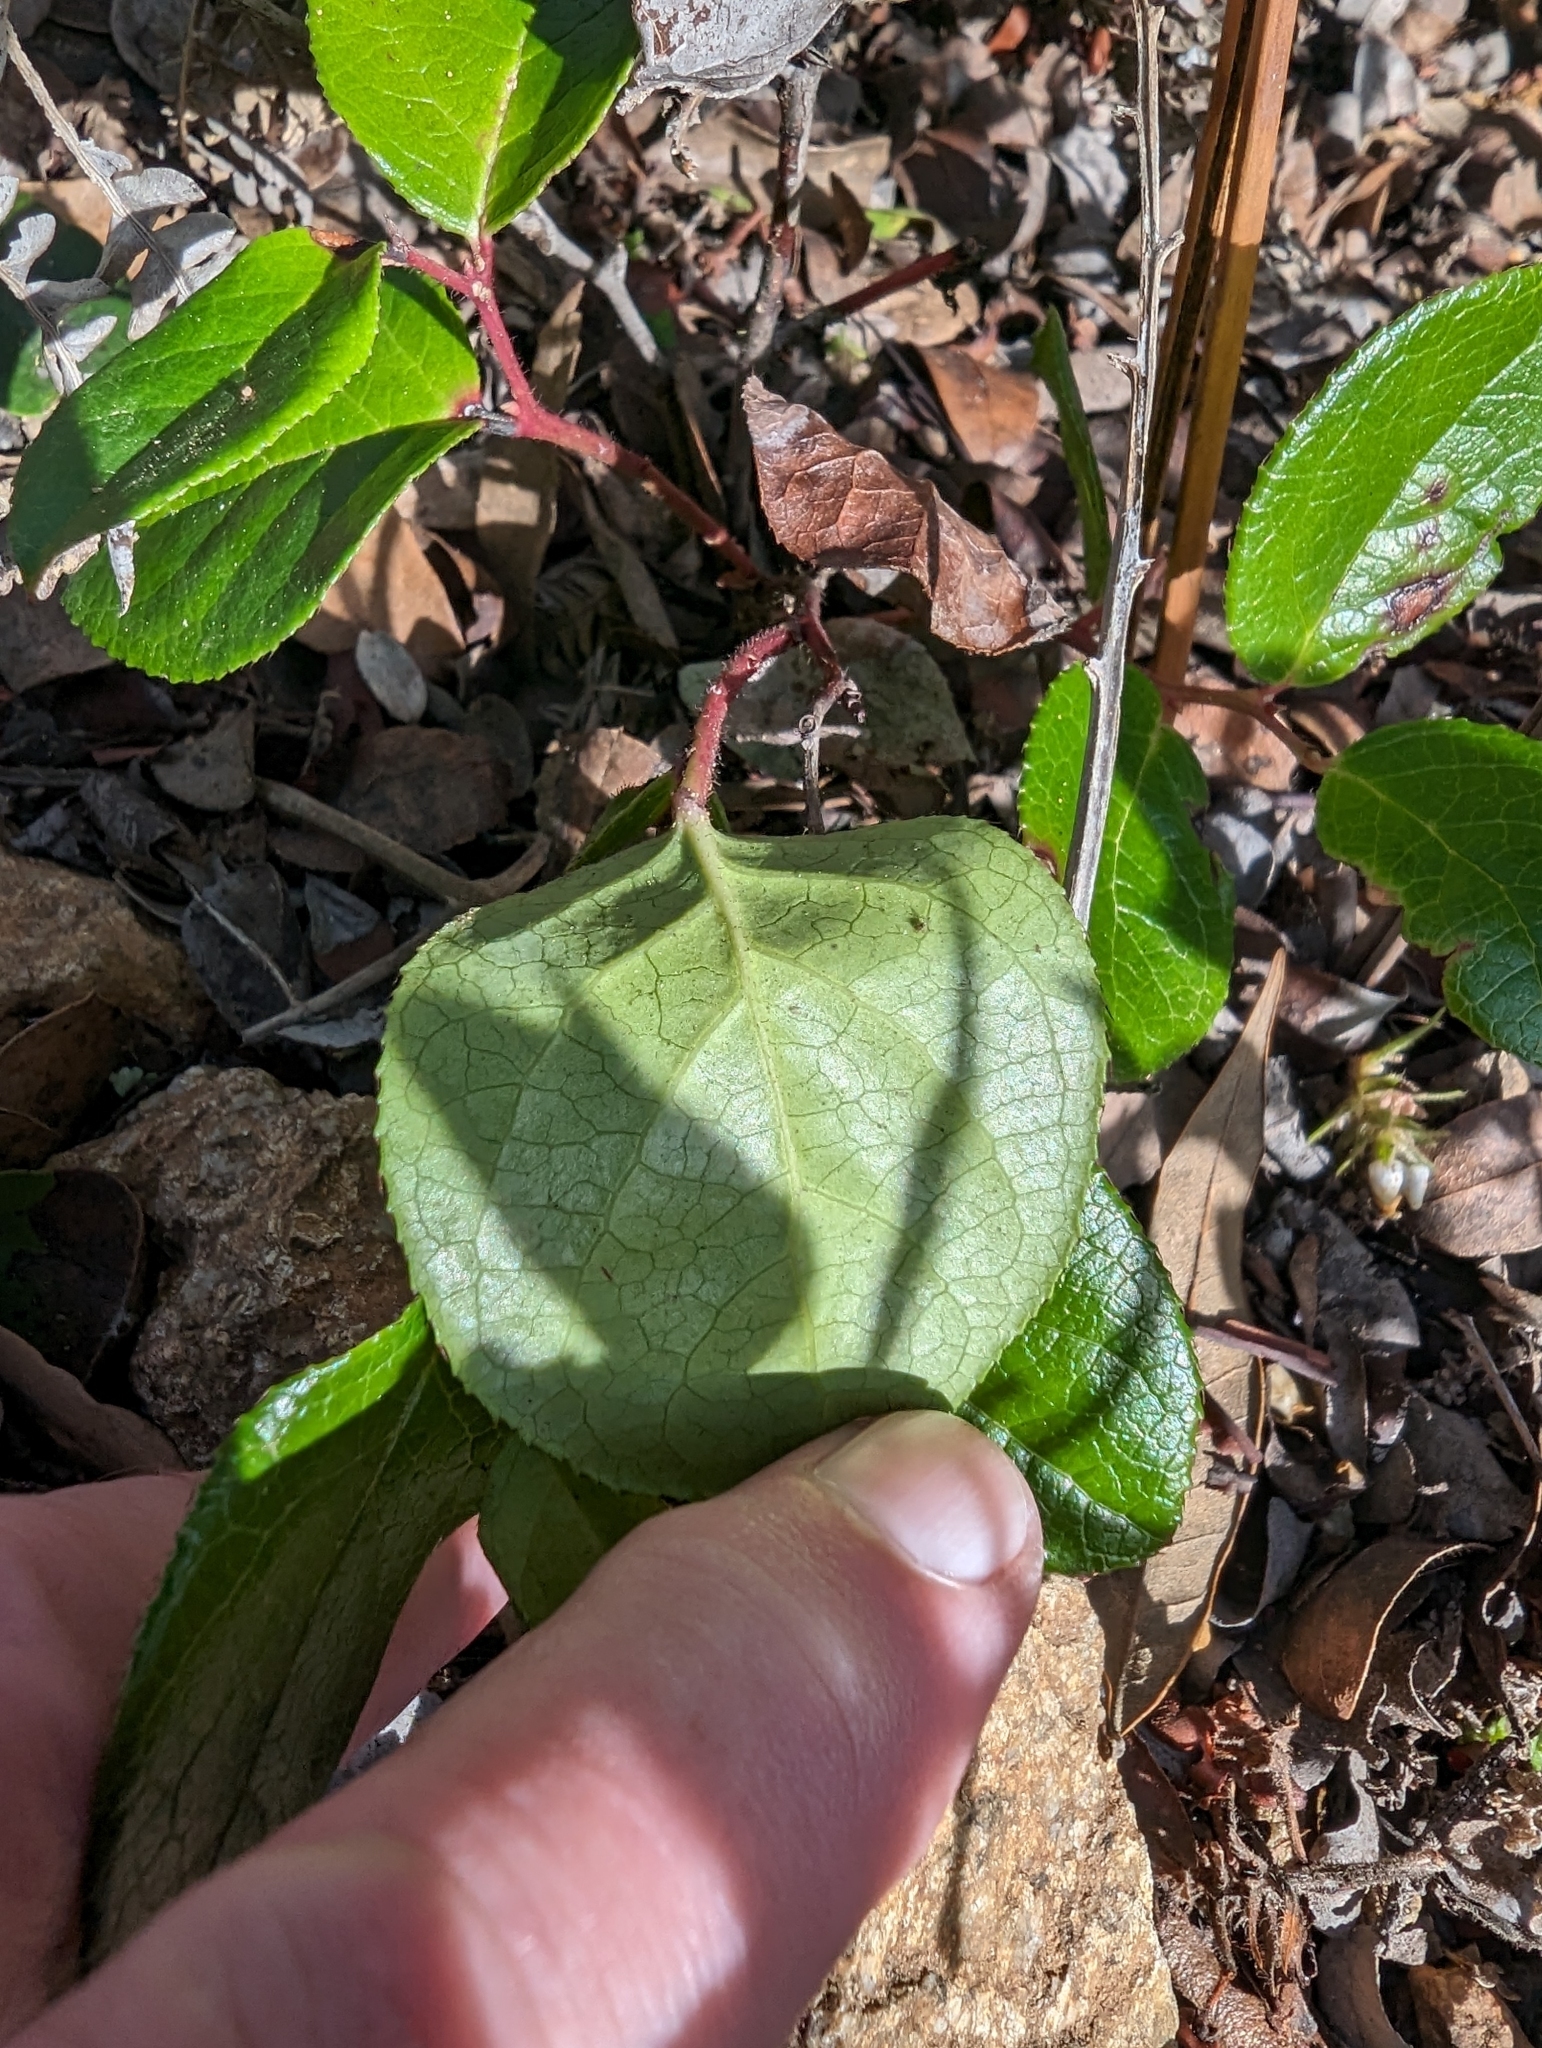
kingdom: Plantae
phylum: Tracheophyta
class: Magnoliopsida
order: Ericales
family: Ericaceae
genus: Gaultheria
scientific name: Gaultheria shallon
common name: Shallon
